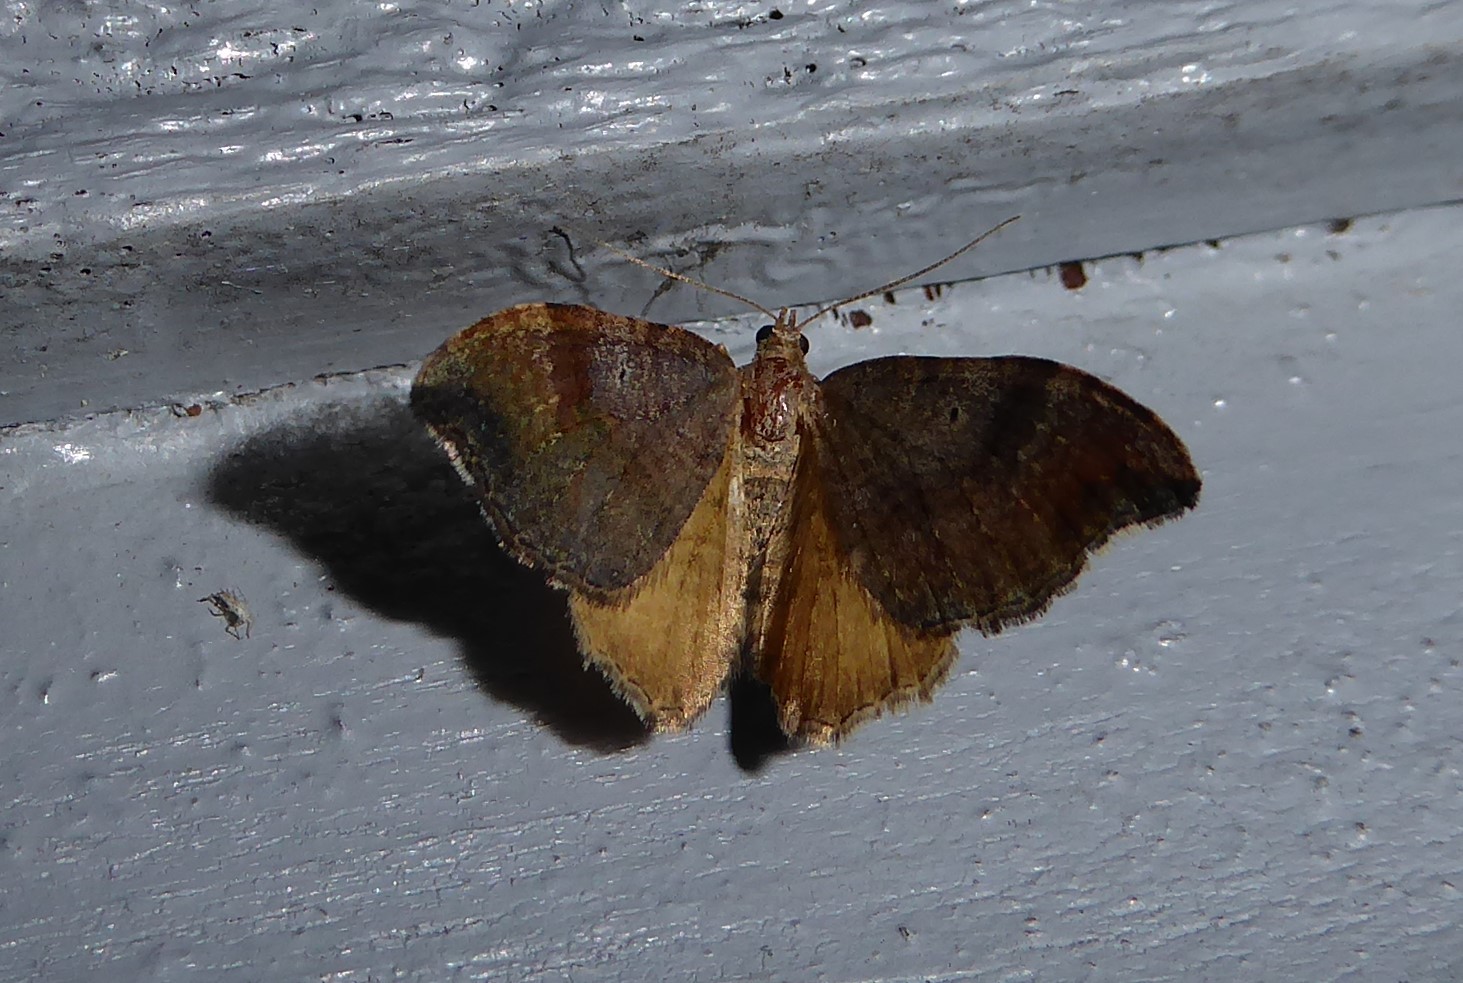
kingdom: Animalia
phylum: Arthropoda
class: Insecta
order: Lepidoptera
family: Geometridae
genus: Homodotis
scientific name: Homodotis megaspilata
